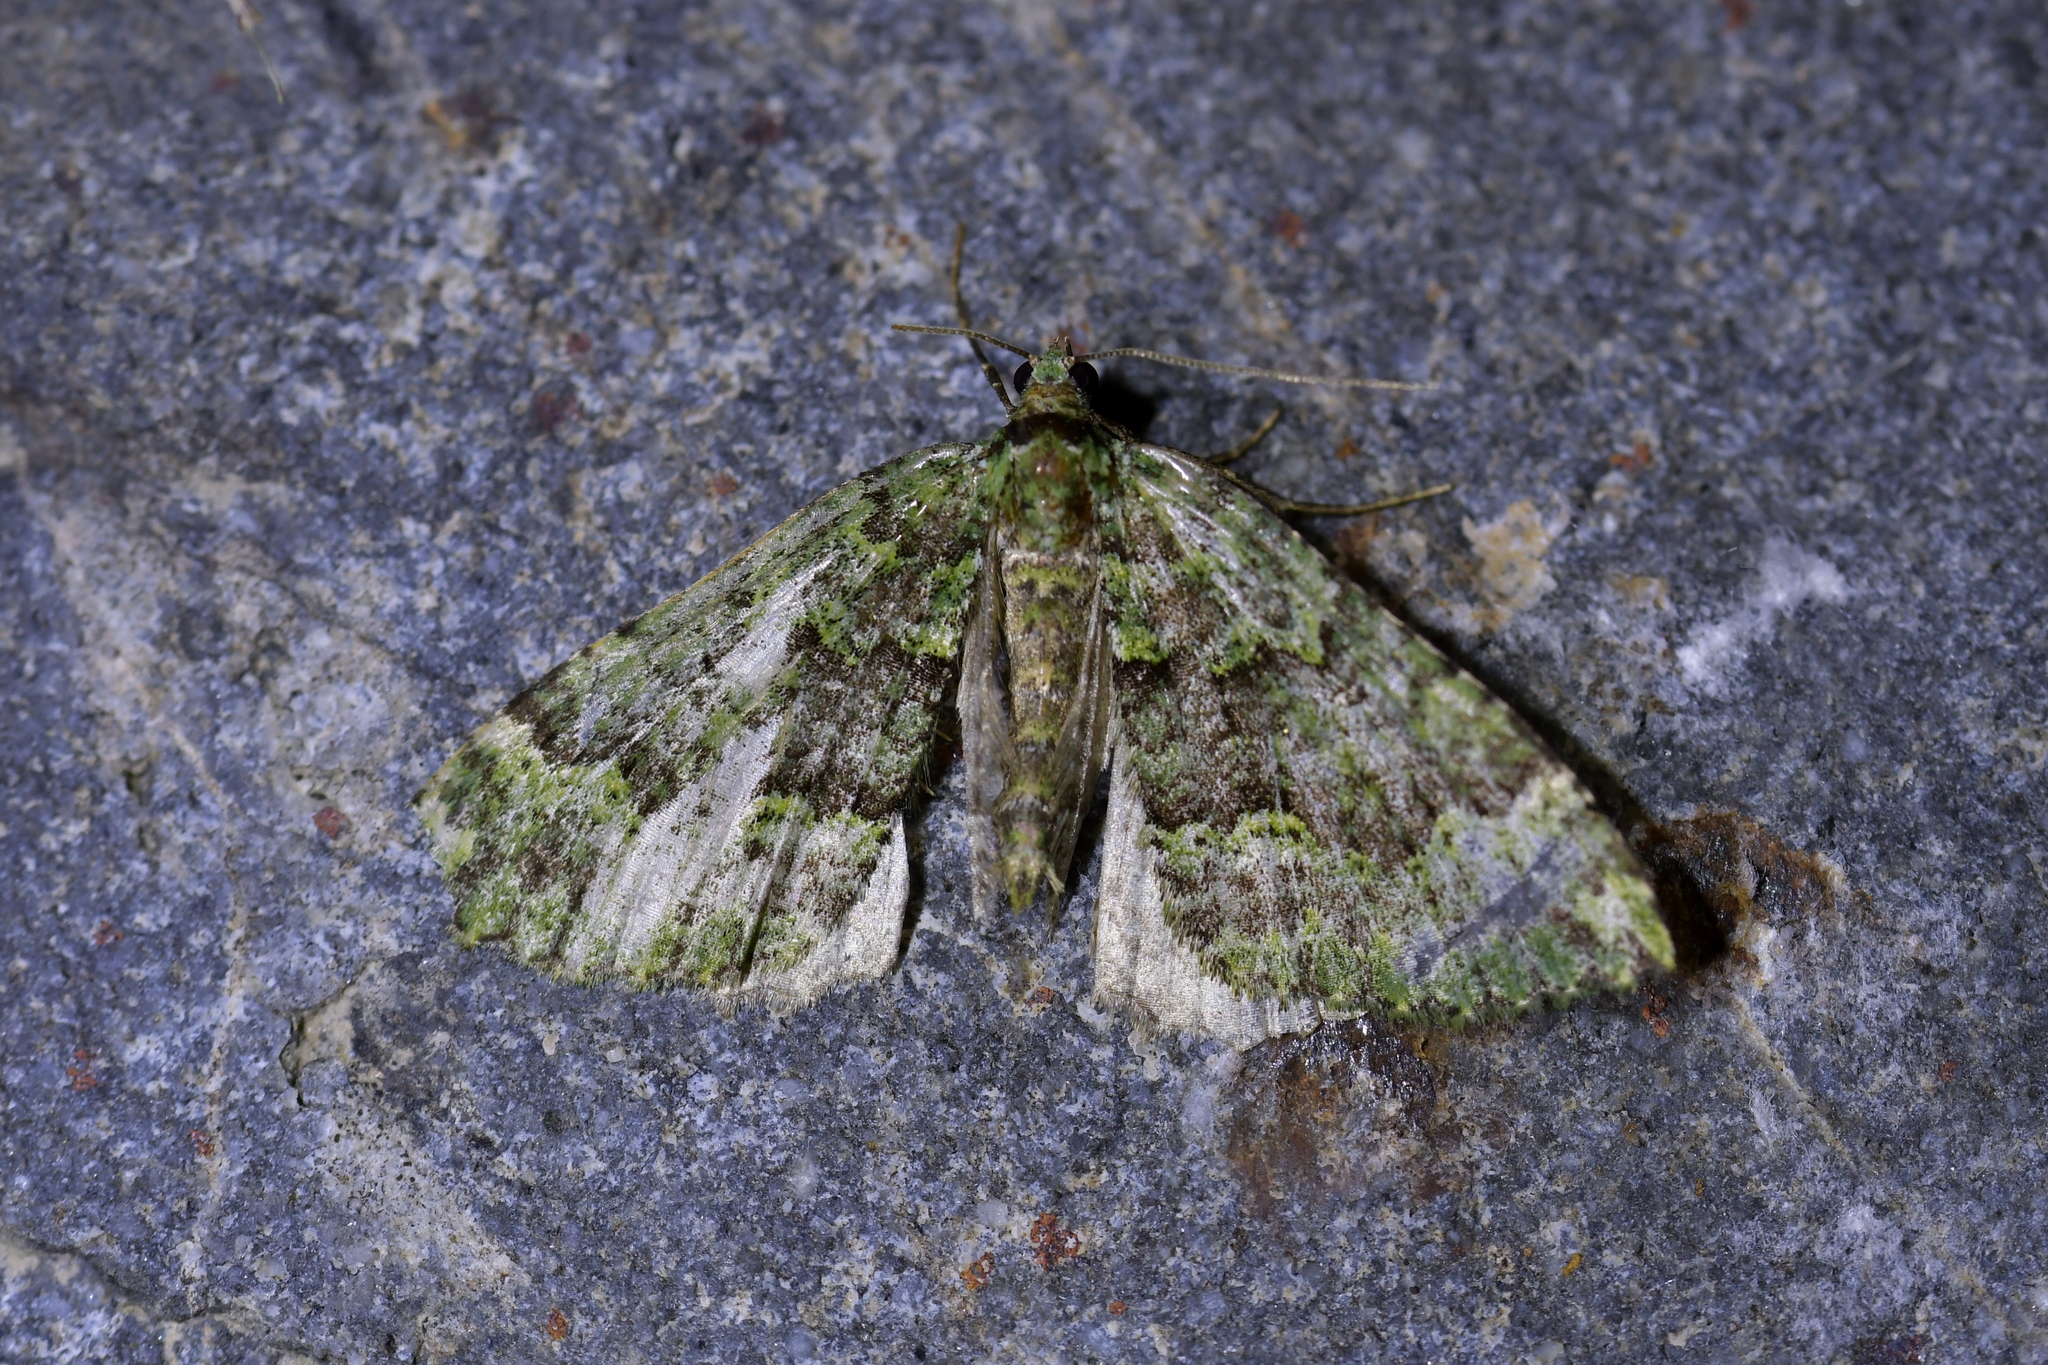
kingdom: Animalia
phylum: Arthropoda
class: Insecta
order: Lepidoptera
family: Geometridae
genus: Austrocidaria
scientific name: Austrocidaria callichlora
